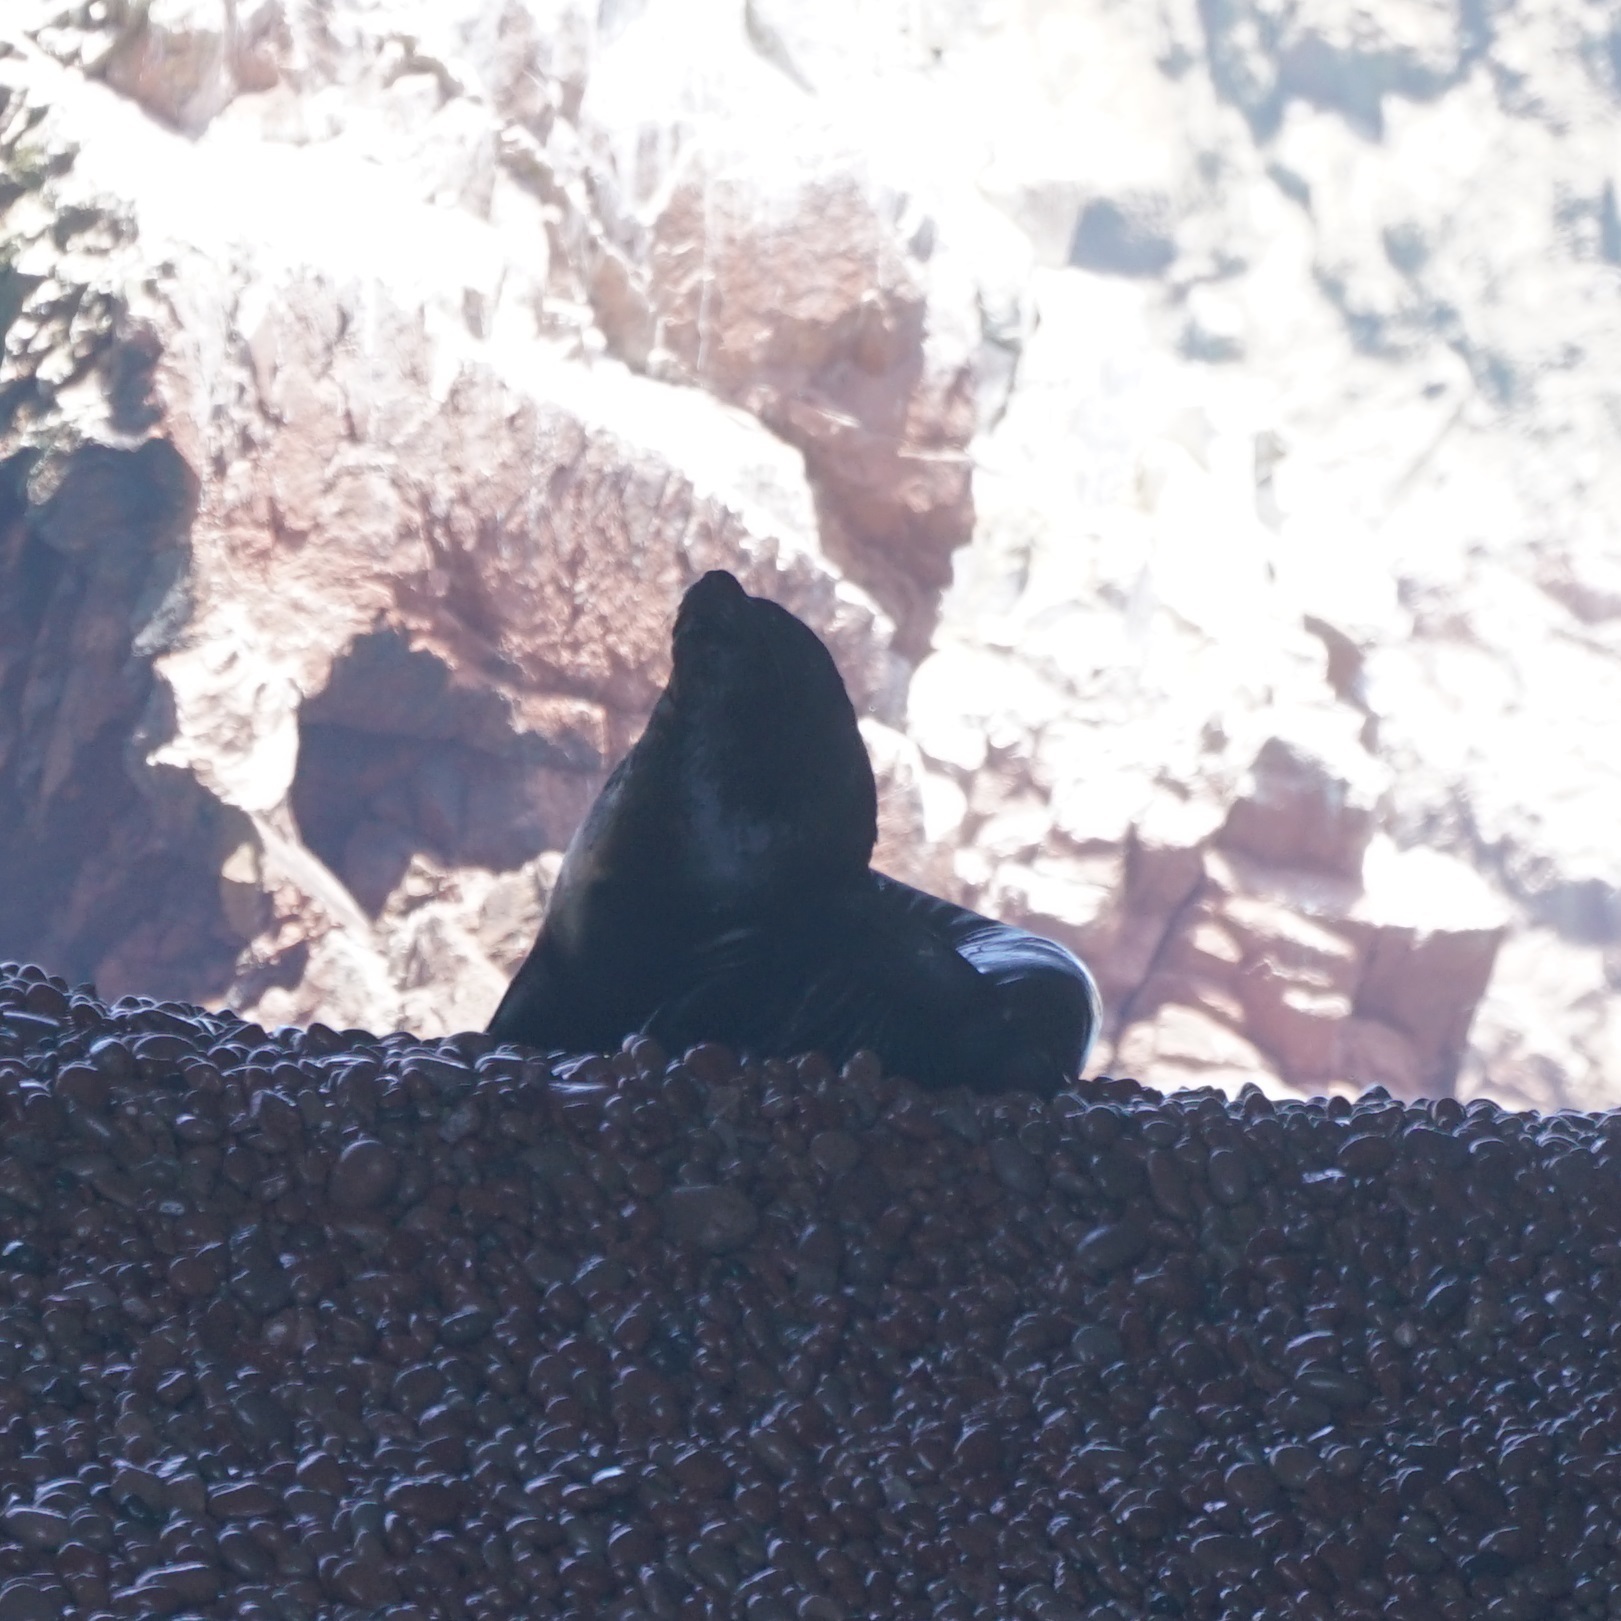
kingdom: Animalia
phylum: Chordata
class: Mammalia
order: Carnivora
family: Otariidae
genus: Otaria
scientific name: Otaria byronia
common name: South american sea lion
